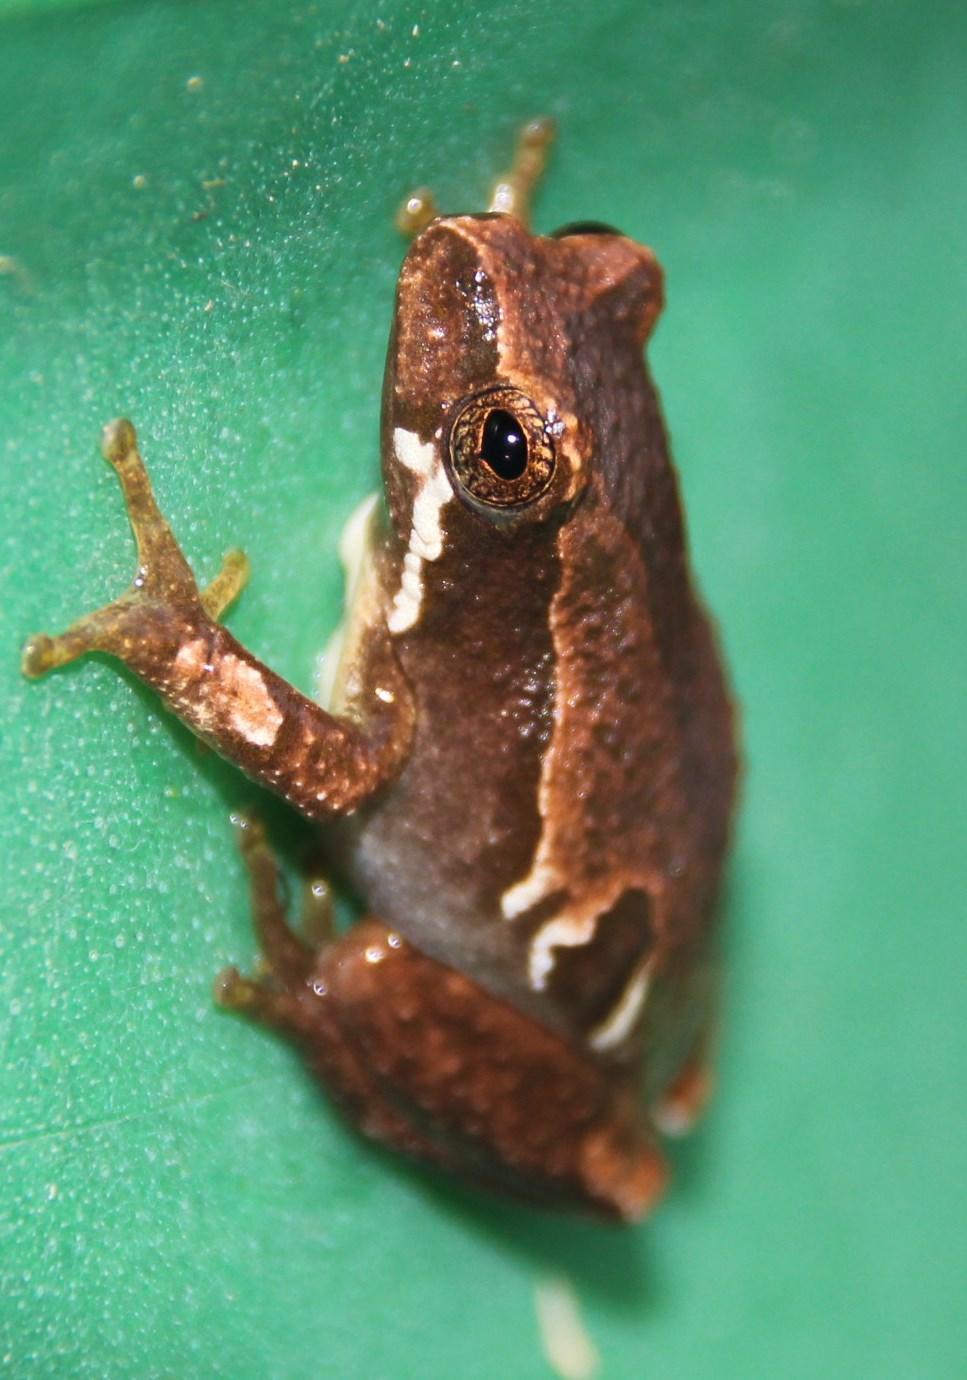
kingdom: Animalia
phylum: Chordata
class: Amphibia
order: Anura
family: Hyperoliidae
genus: Hyperolius
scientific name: Hyperolius marmoratus
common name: Painted reed frog
